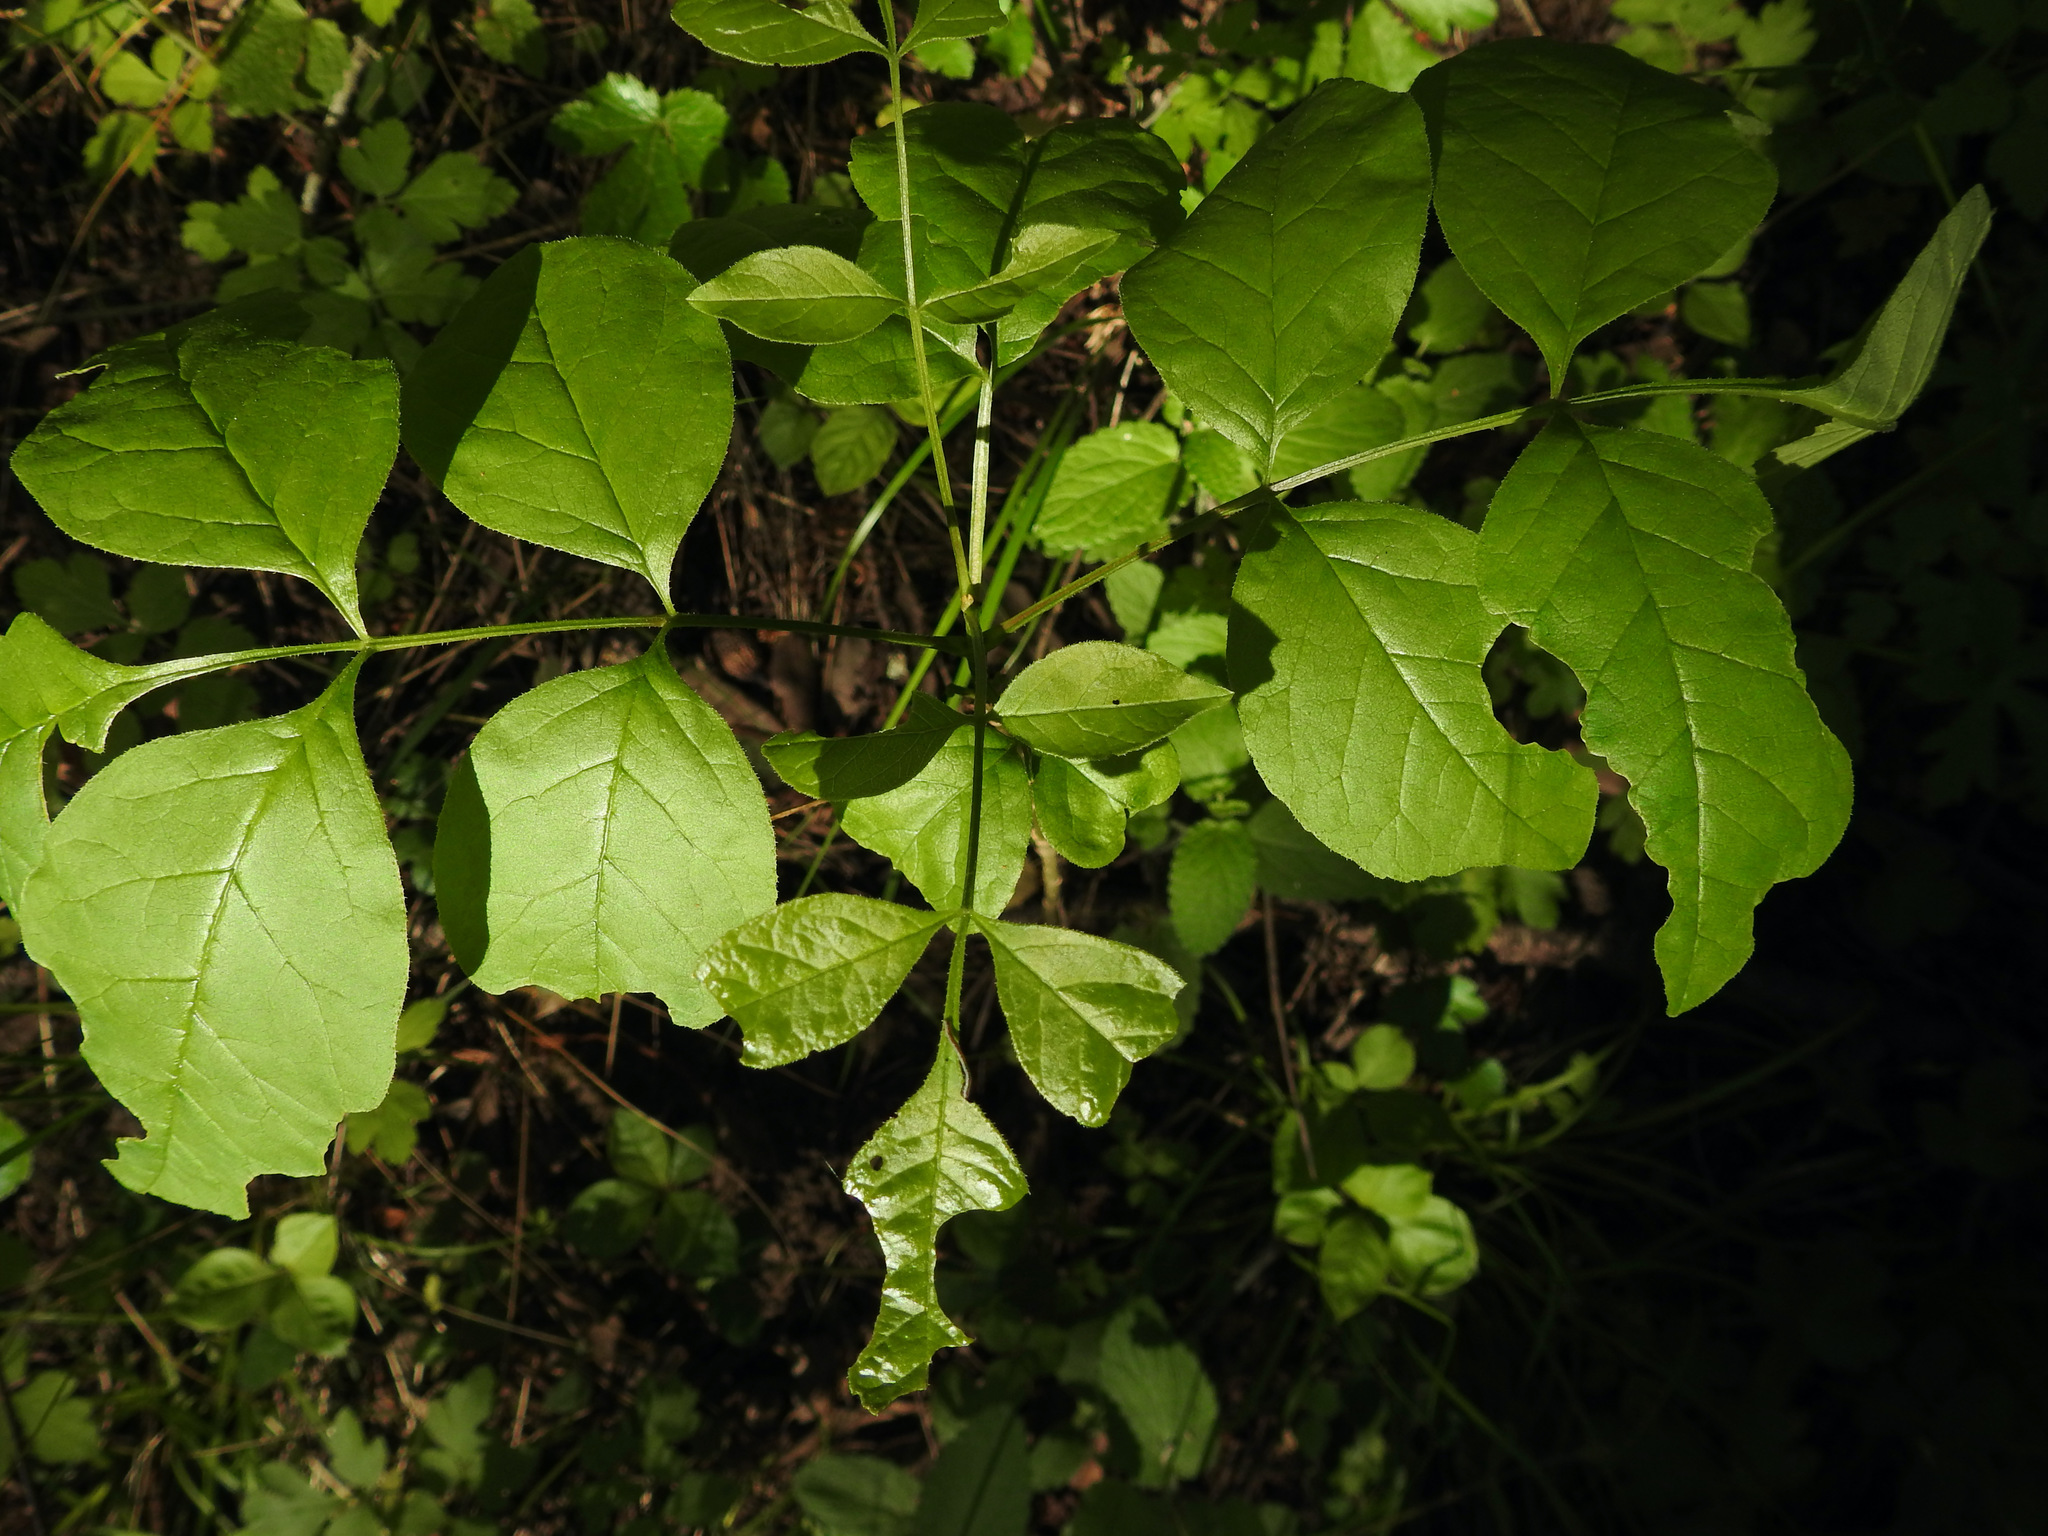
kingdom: Plantae
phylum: Tracheophyta
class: Magnoliopsida
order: Lamiales
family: Oleaceae
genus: Fraxinus
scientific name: Fraxinus latifolia
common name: Oregon ash
